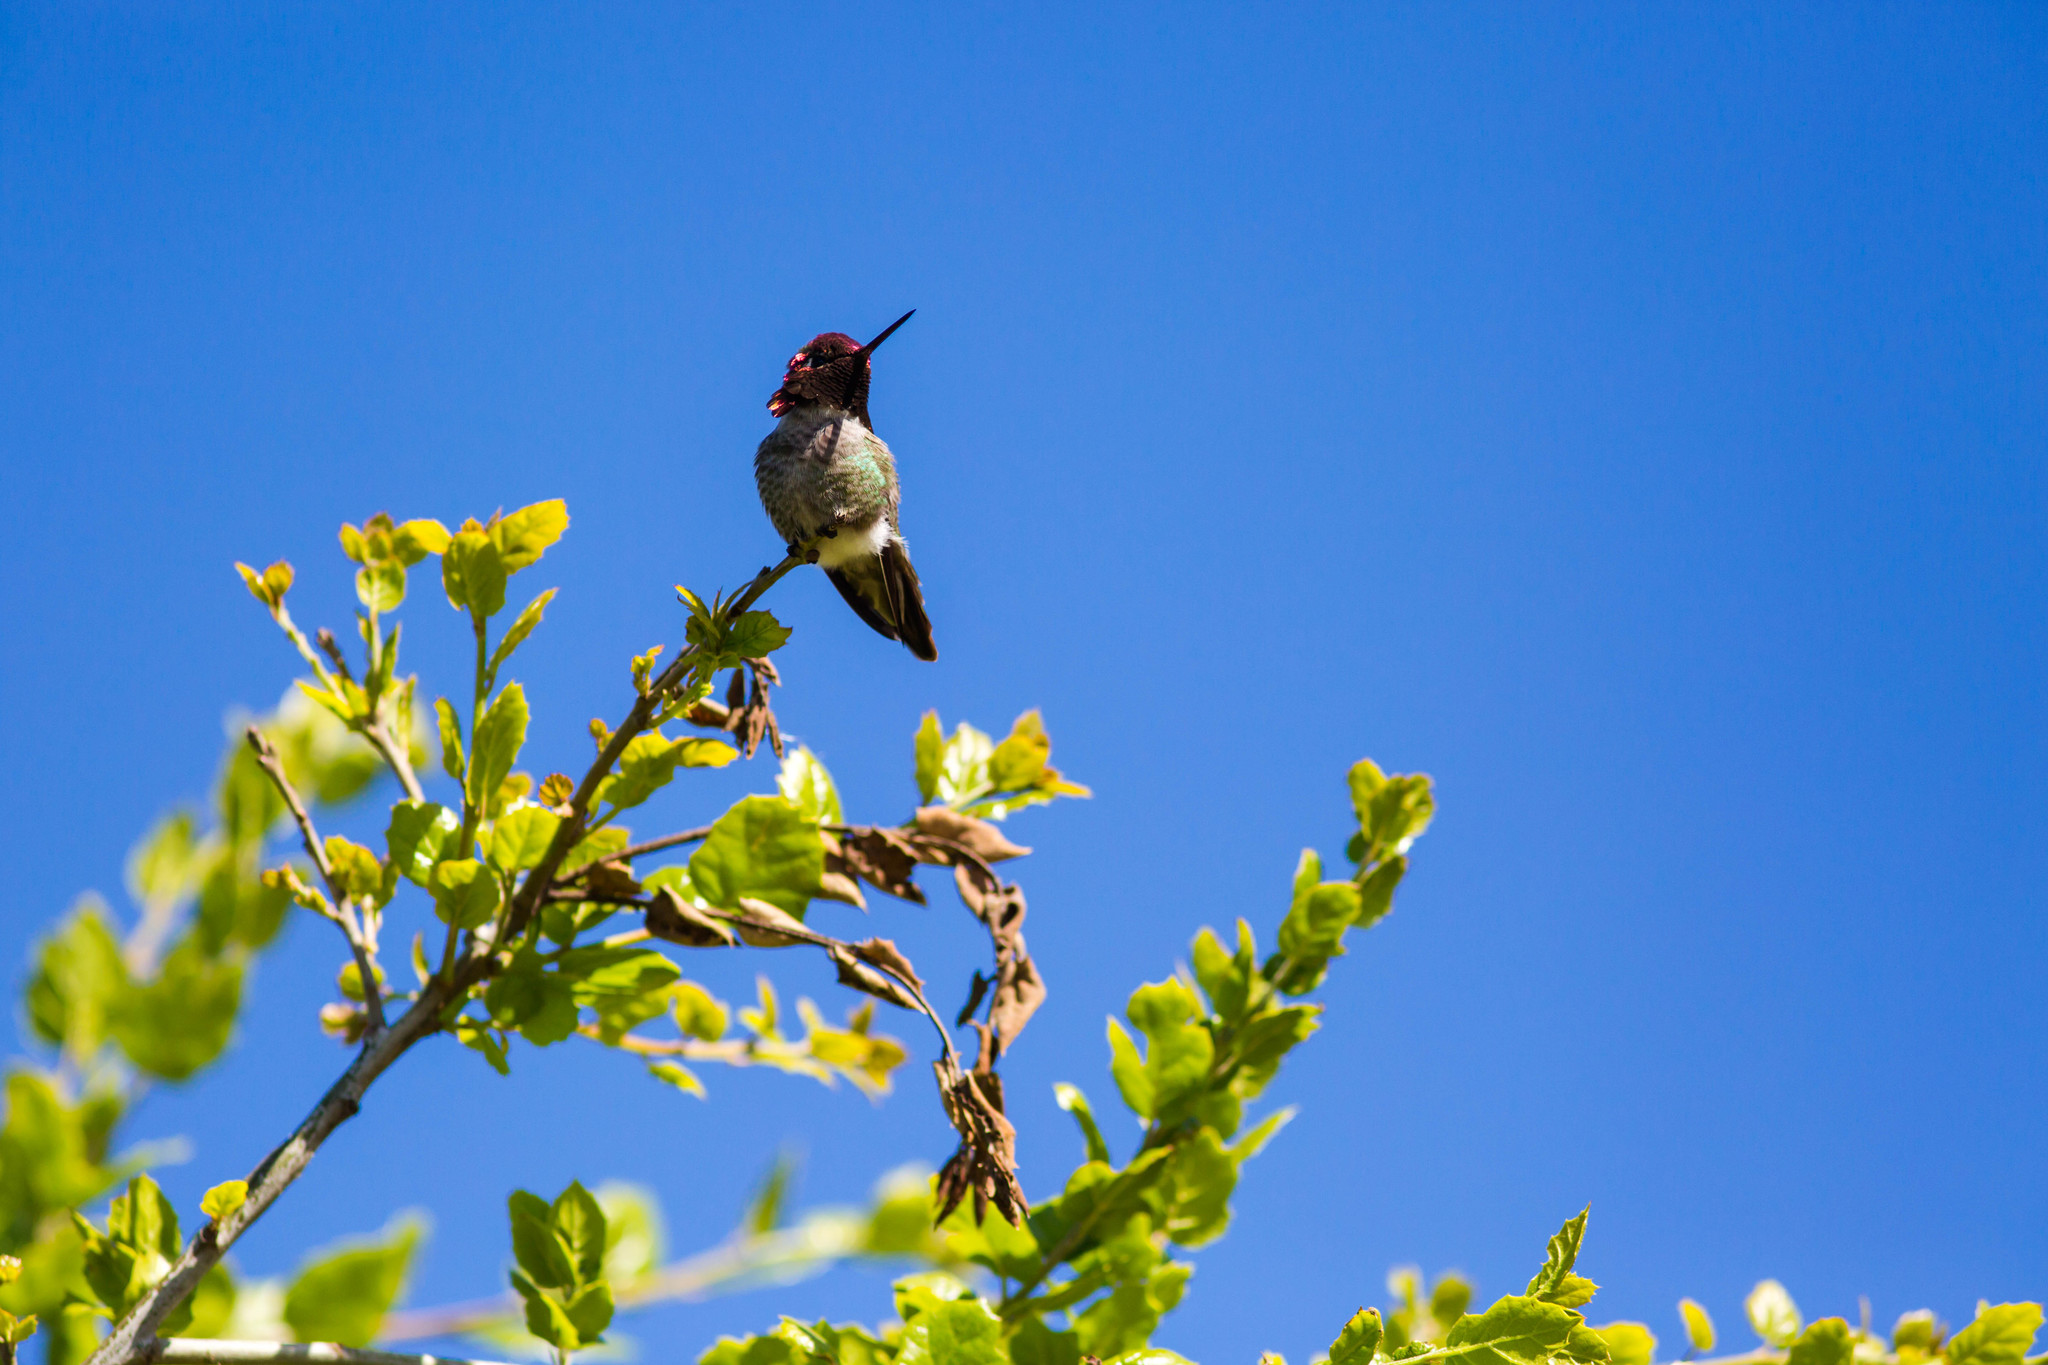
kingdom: Animalia
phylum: Chordata
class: Aves
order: Apodiformes
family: Trochilidae
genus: Calypte
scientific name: Calypte anna
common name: Anna's hummingbird
